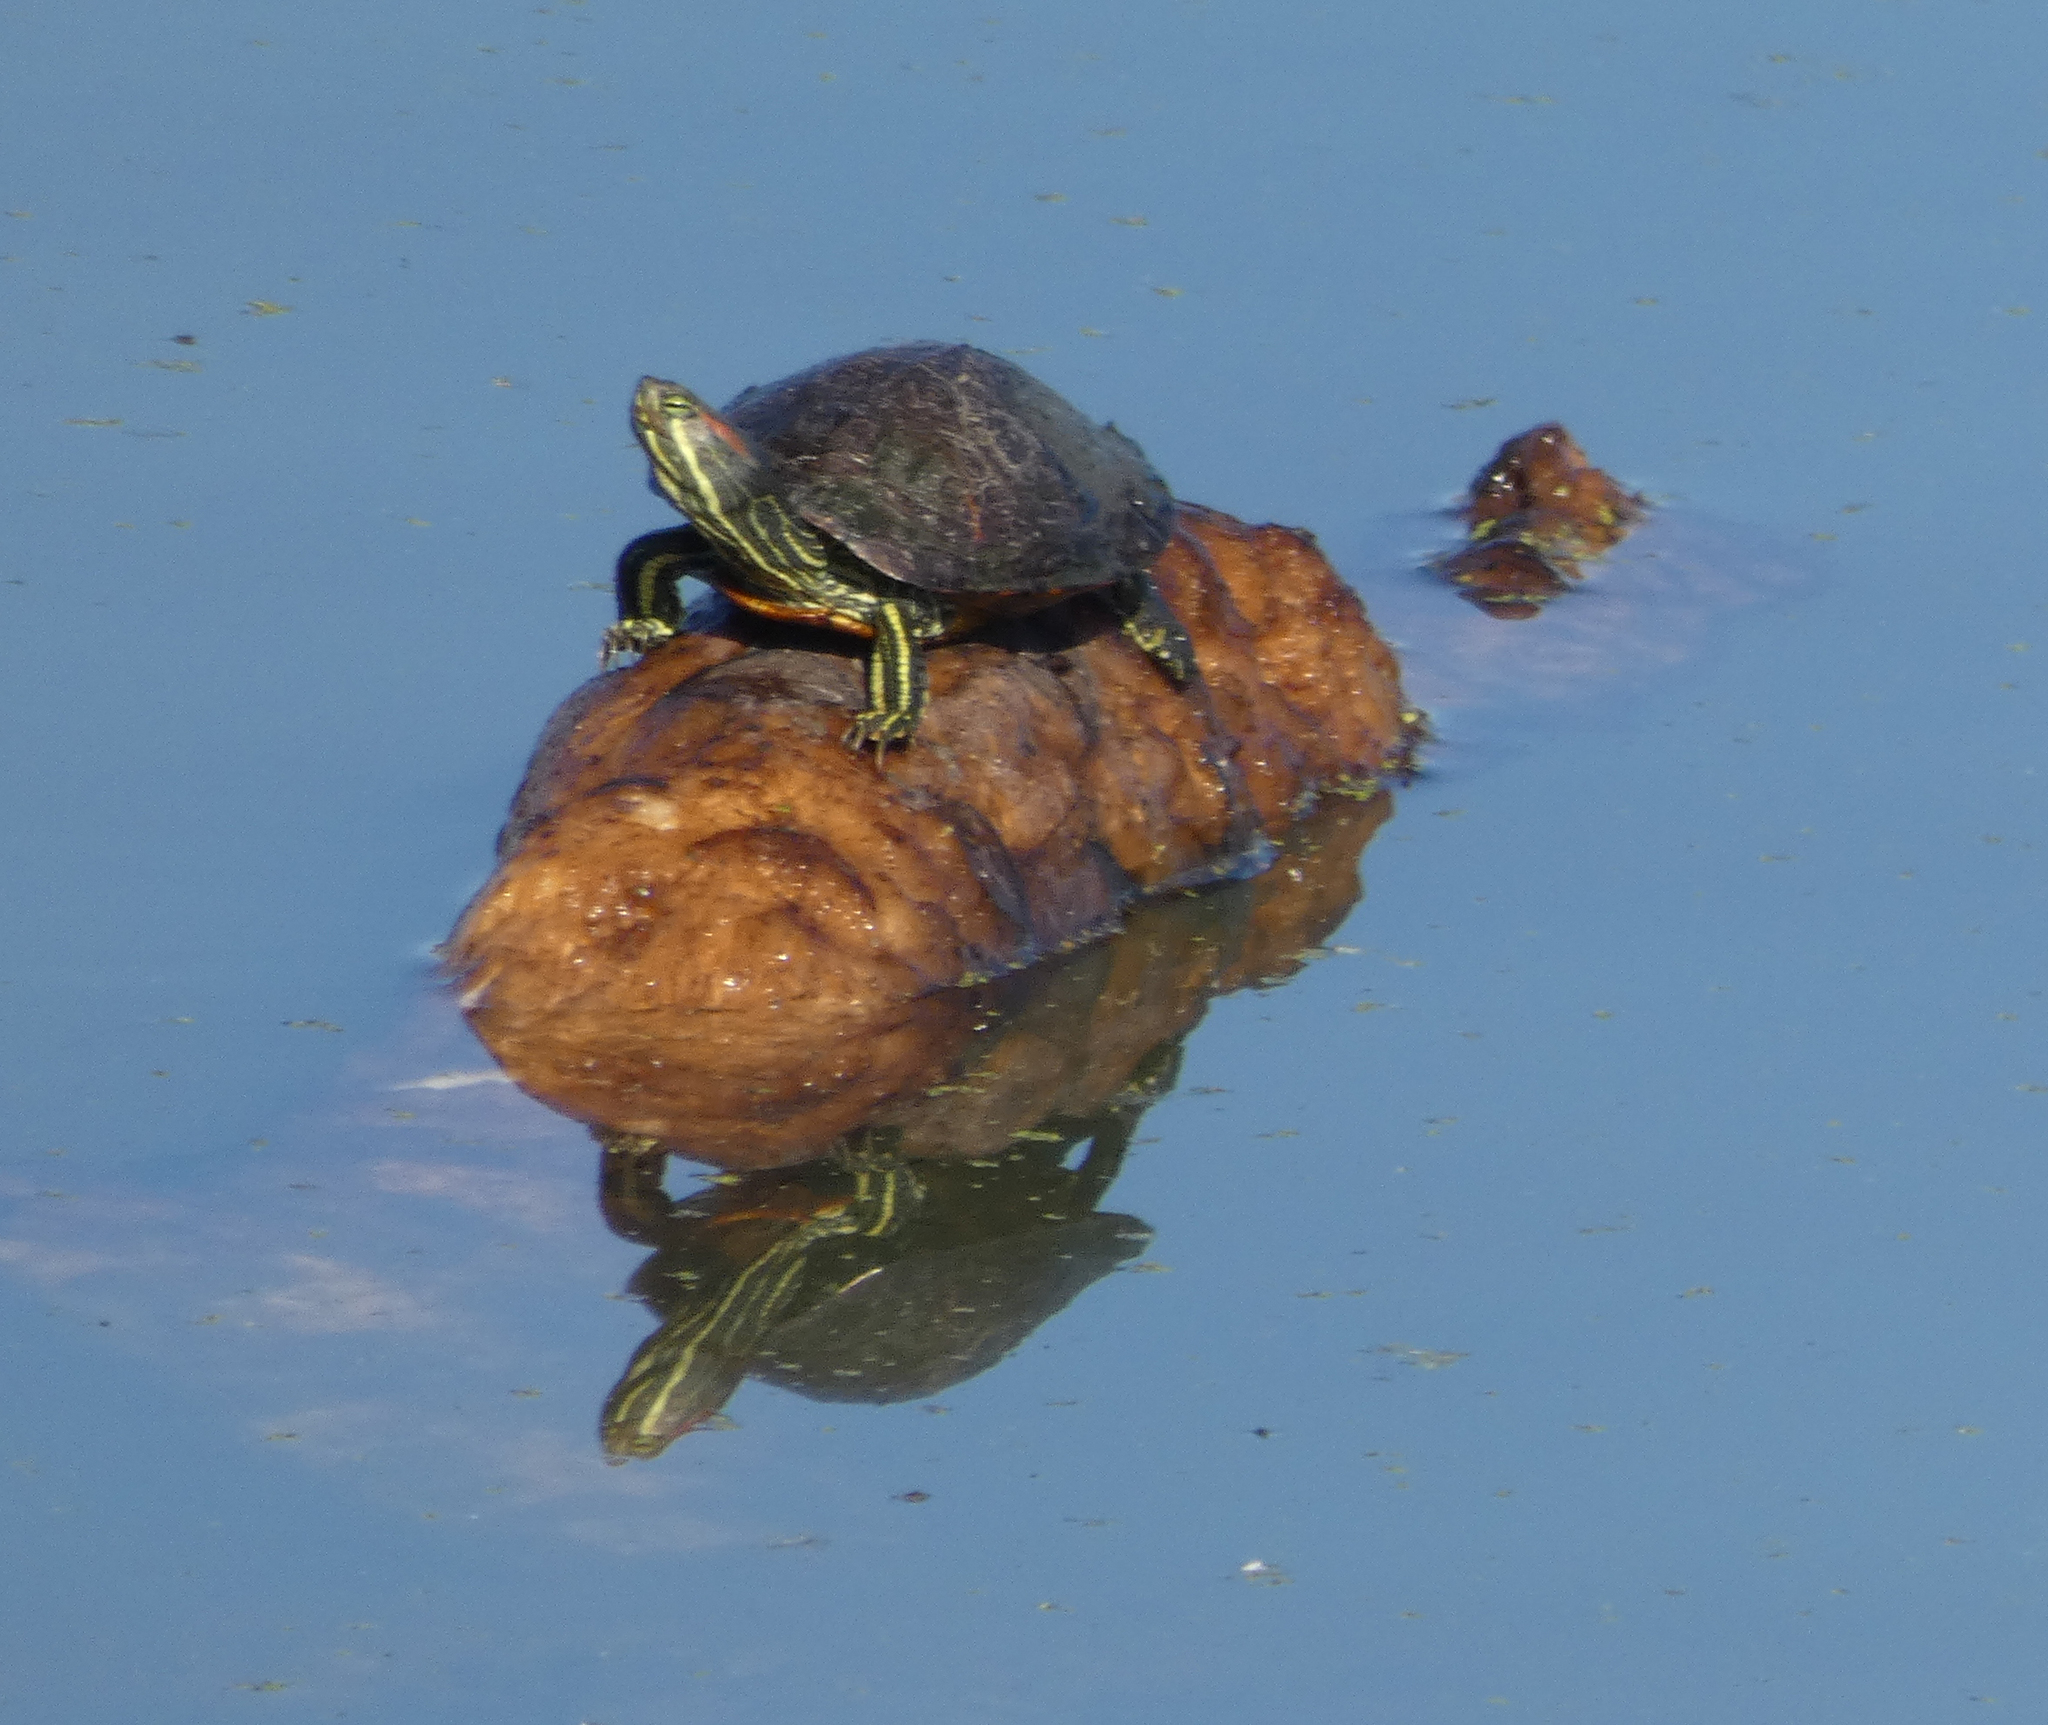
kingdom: Animalia
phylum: Chordata
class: Testudines
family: Emydidae
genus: Trachemys
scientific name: Trachemys scripta
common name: Slider
